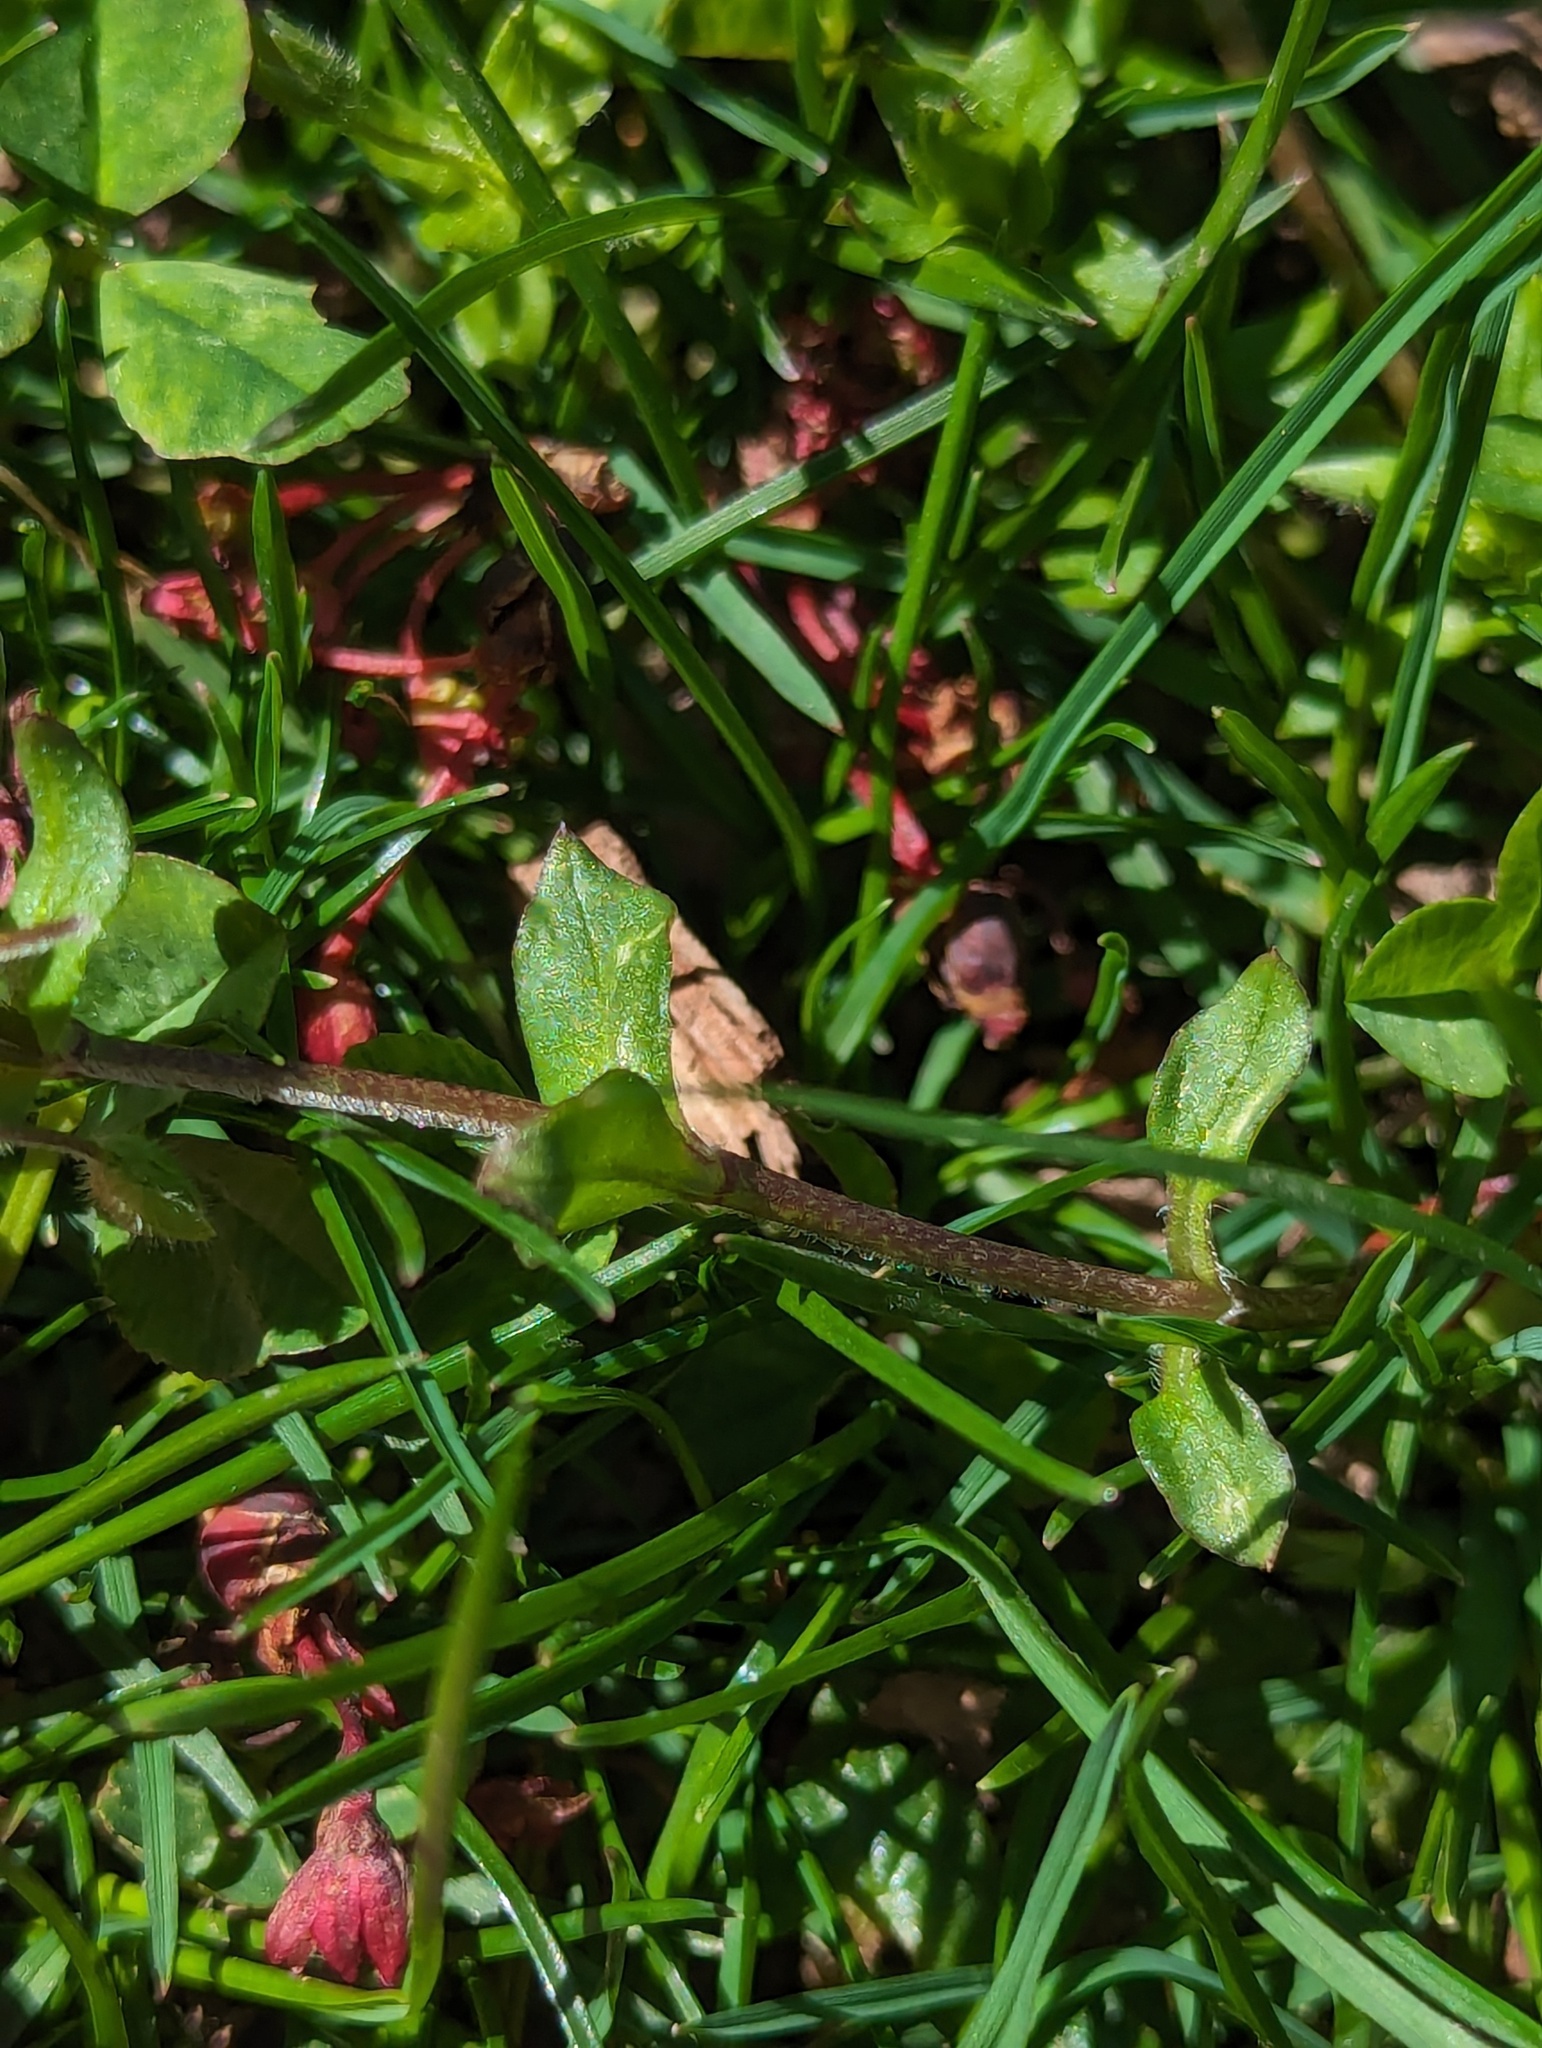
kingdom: Plantae
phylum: Tracheophyta
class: Magnoliopsida
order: Caryophyllales
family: Caryophyllaceae
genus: Stellaria
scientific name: Stellaria media
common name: Common chickweed
